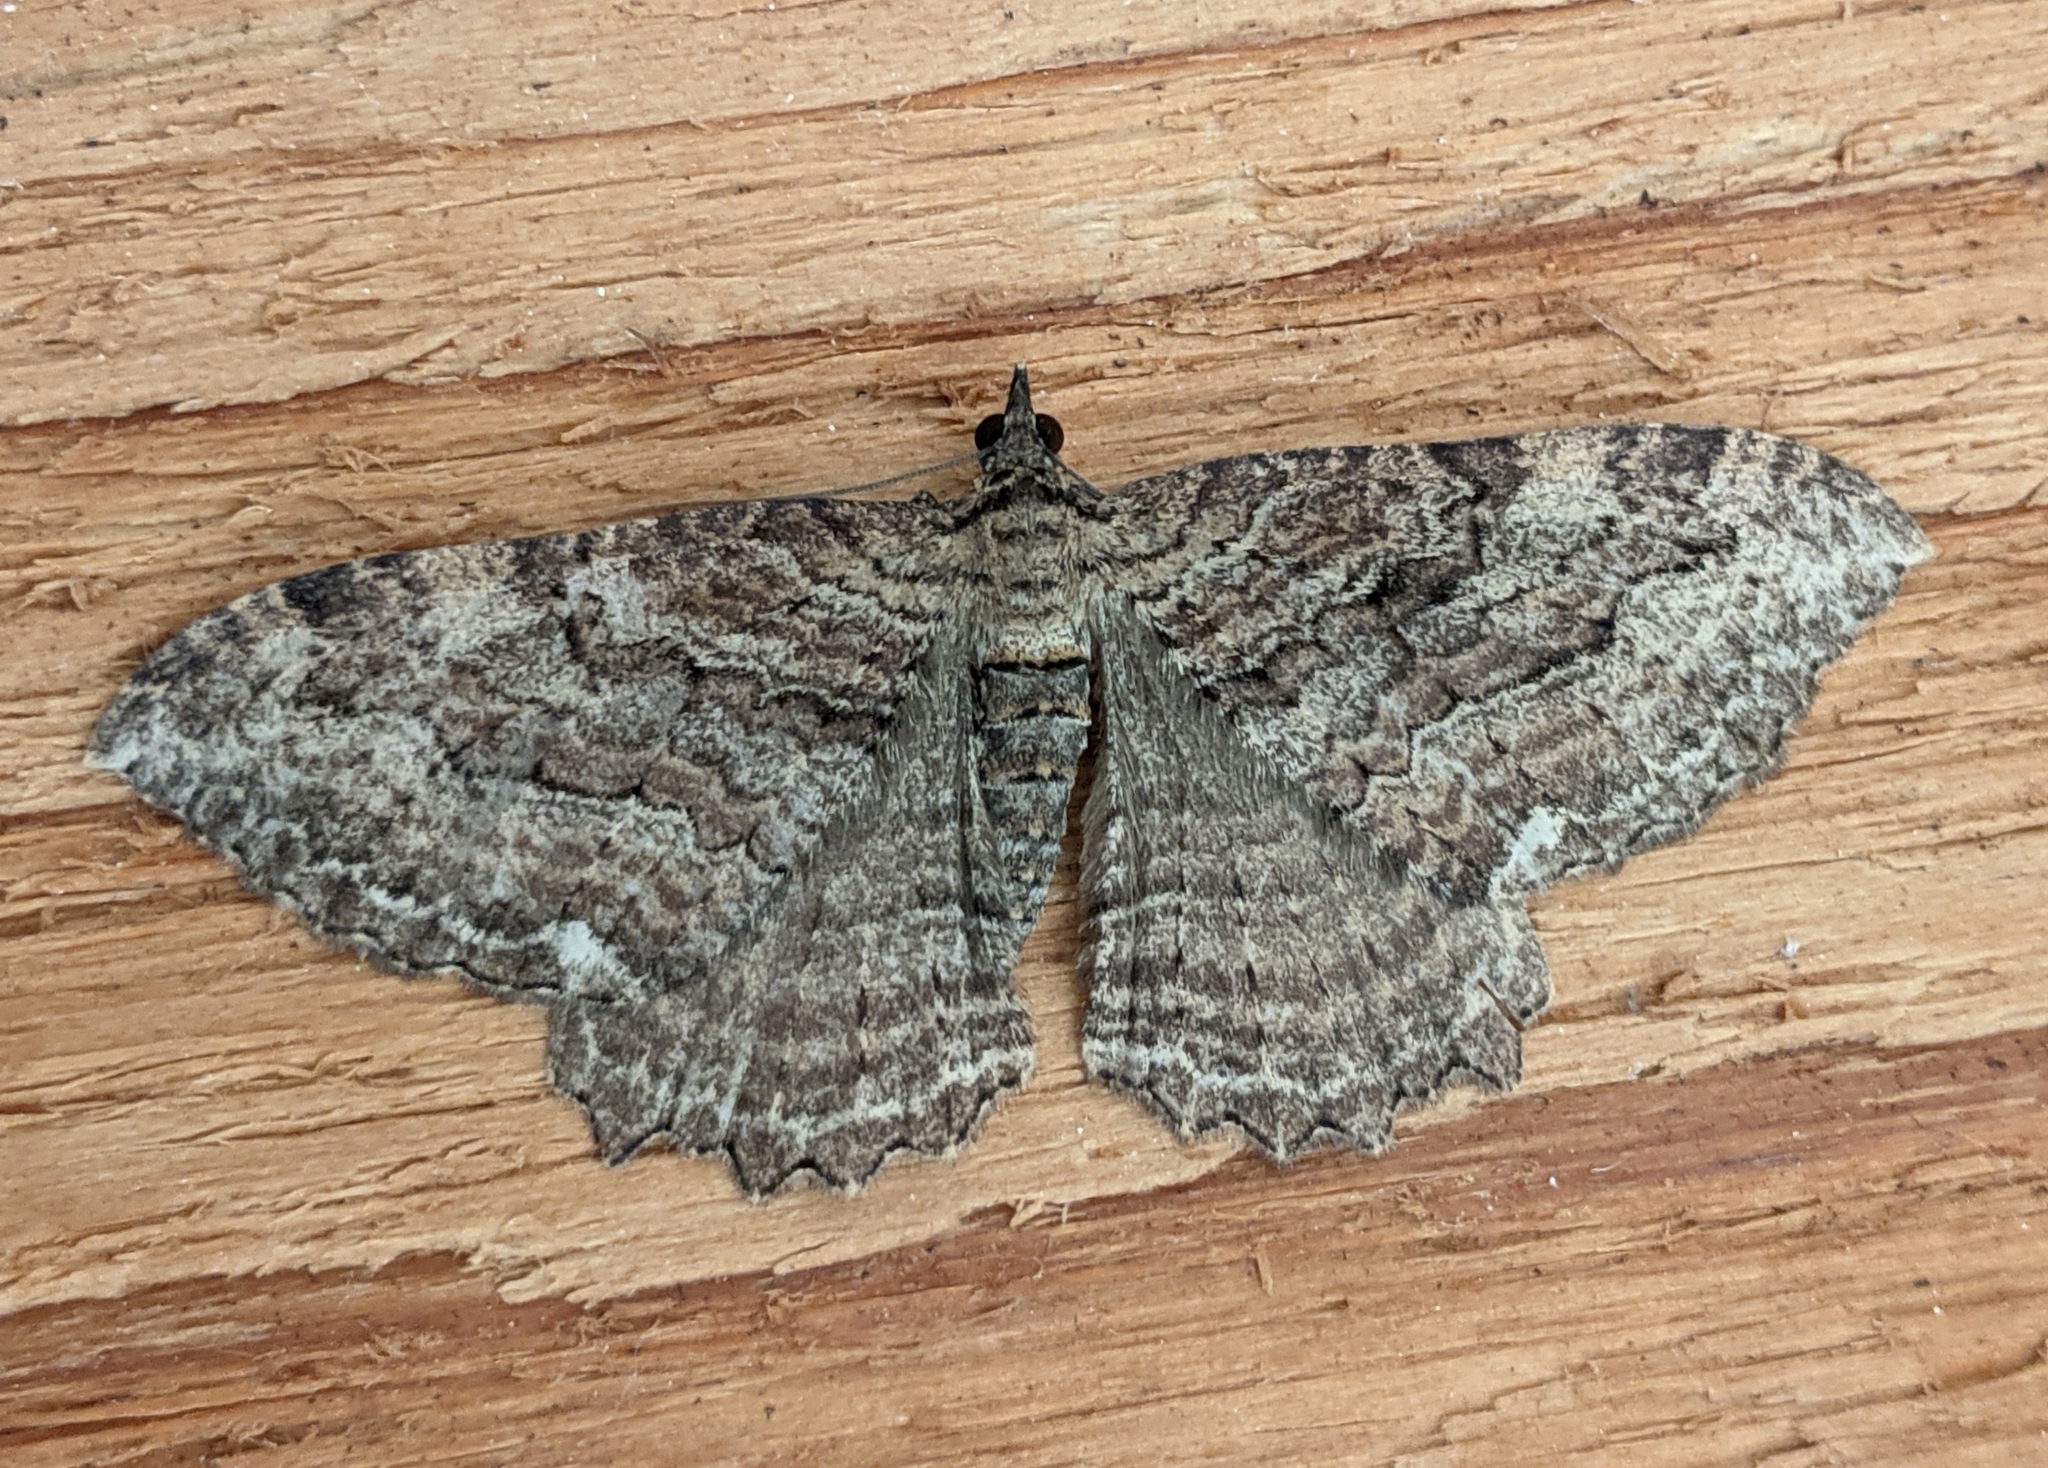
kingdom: Animalia
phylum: Arthropoda
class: Insecta
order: Lepidoptera
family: Geometridae
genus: Rheumaptera
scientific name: Rheumaptera
